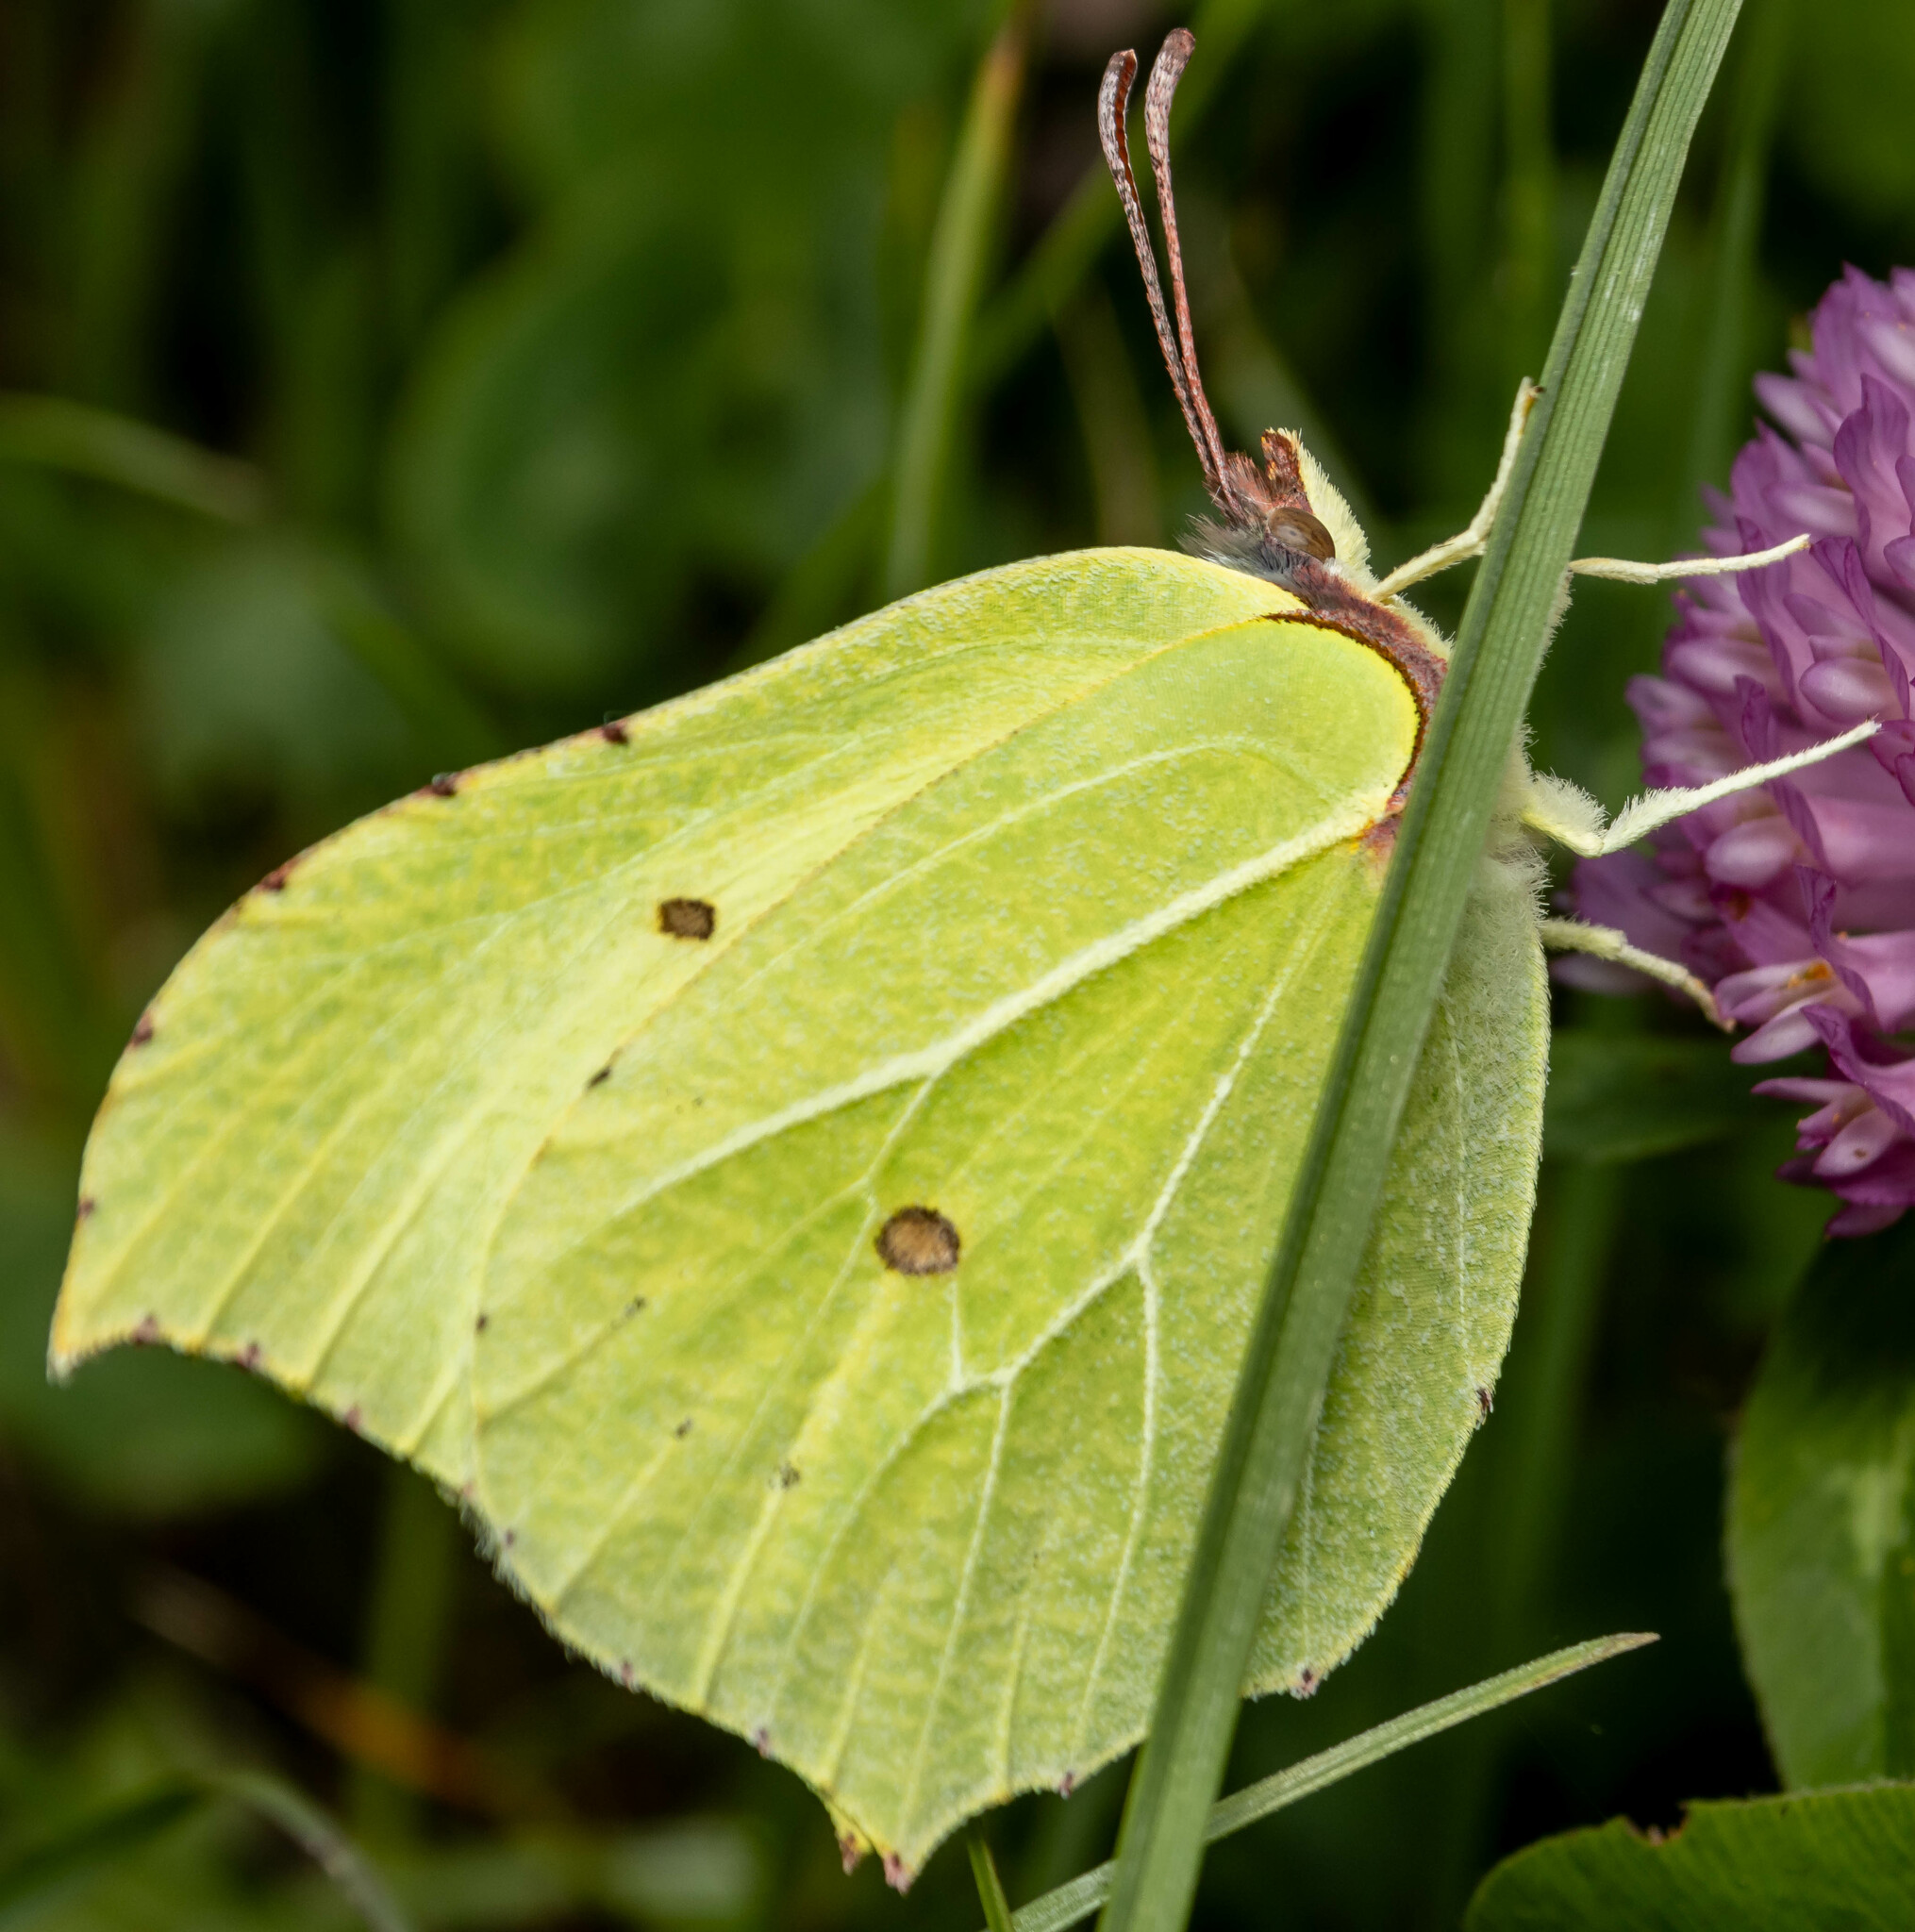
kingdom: Animalia
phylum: Arthropoda
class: Insecta
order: Lepidoptera
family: Pieridae
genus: Gonepteryx
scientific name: Gonepteryx rhamni
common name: Brimstone
